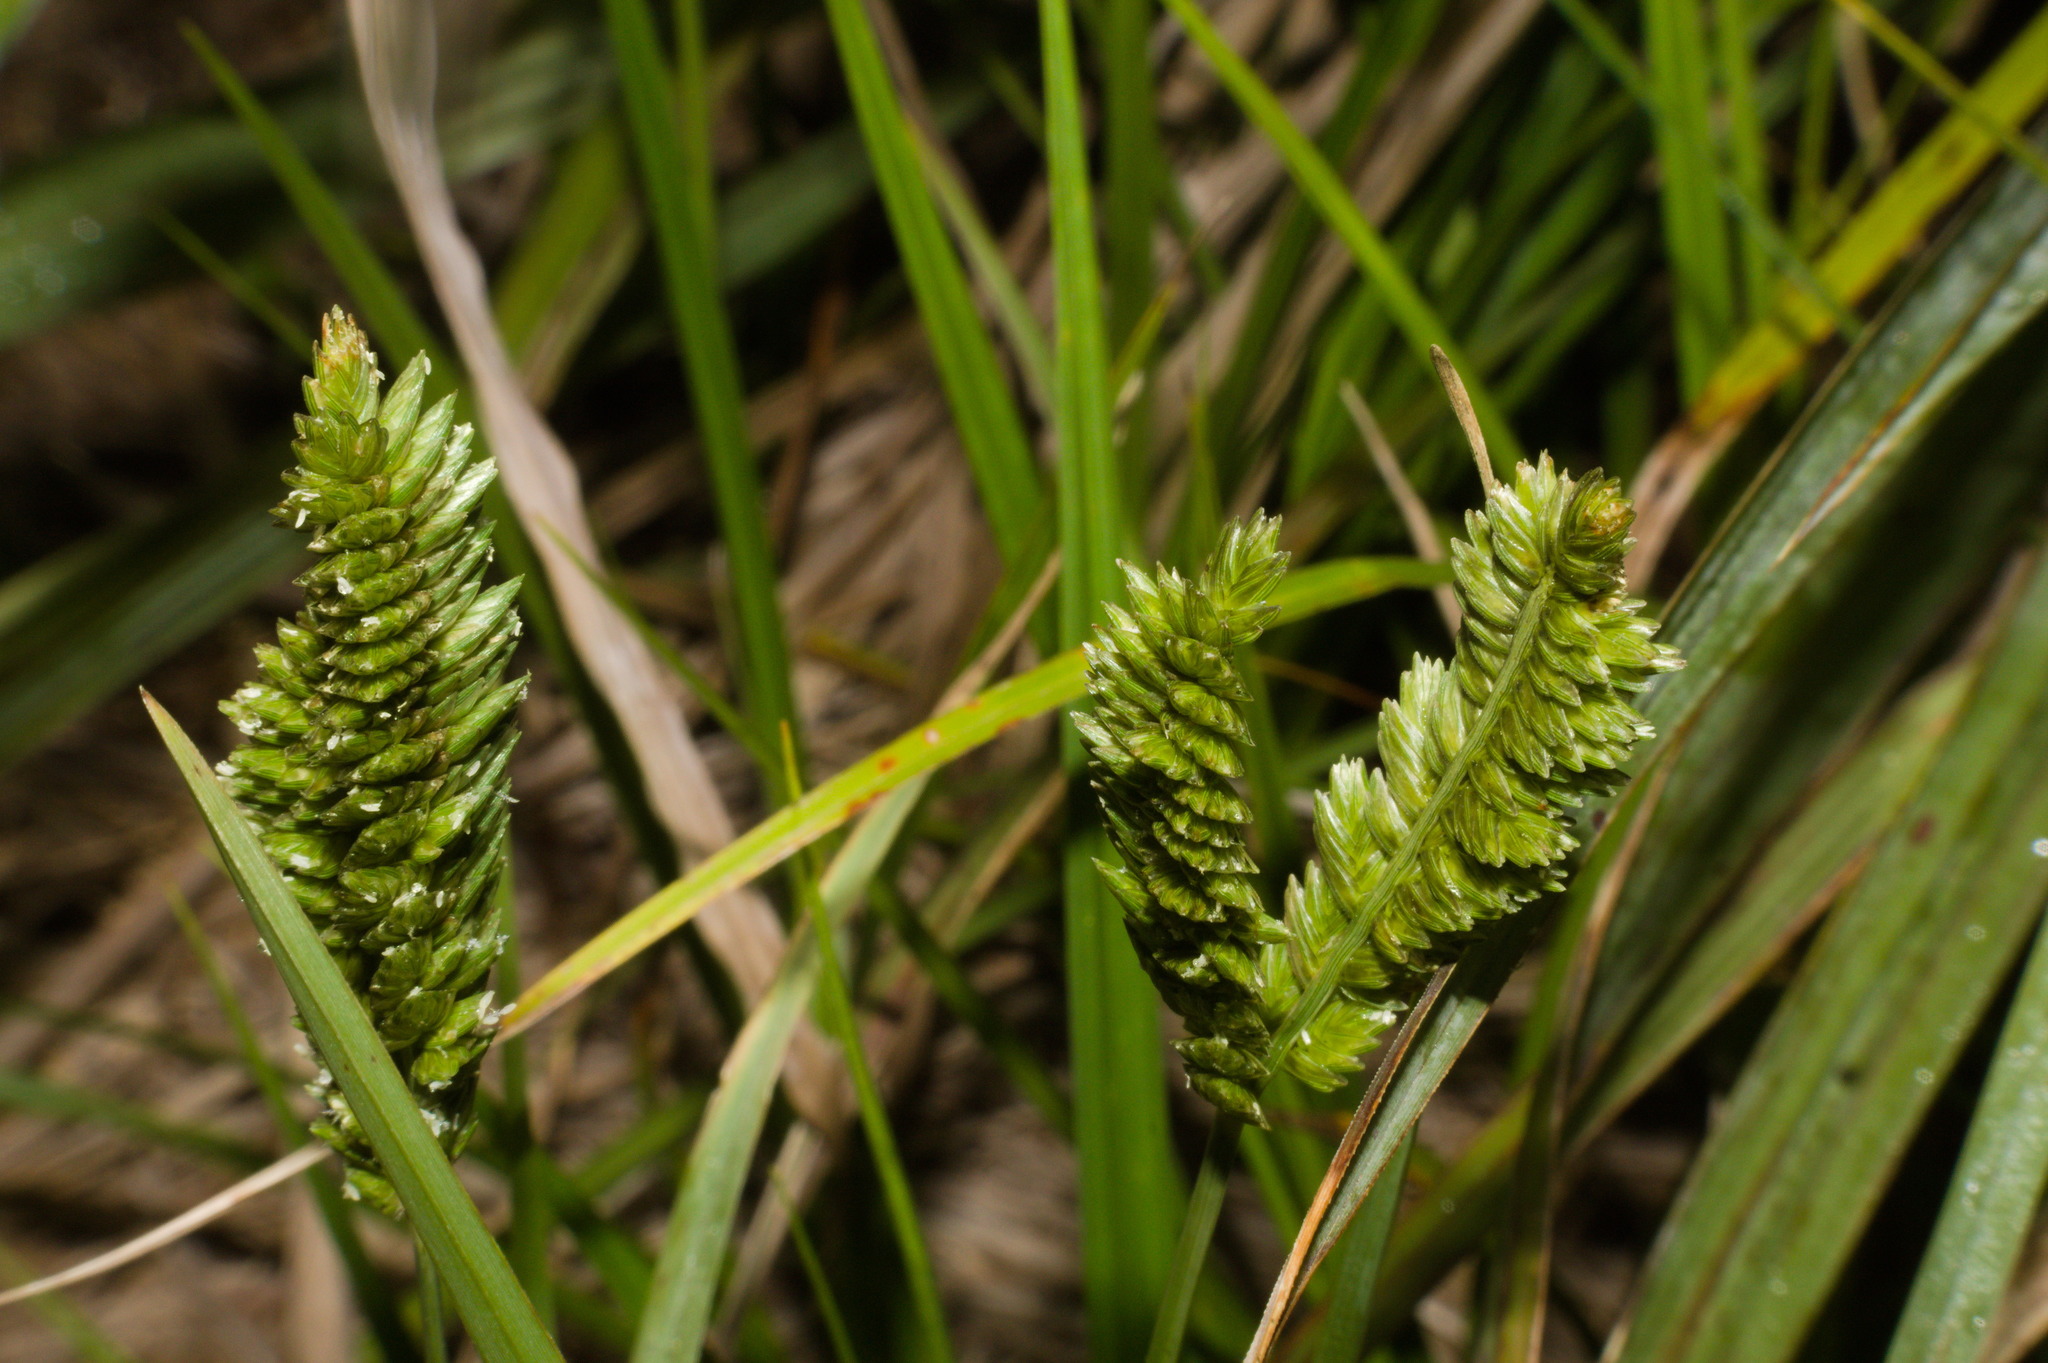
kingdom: Plantae
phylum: Tracheophyta
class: Liliopsida
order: Poales
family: Poaceae
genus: Eleusine
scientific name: Eleusine tristachya
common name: American yard-grass
